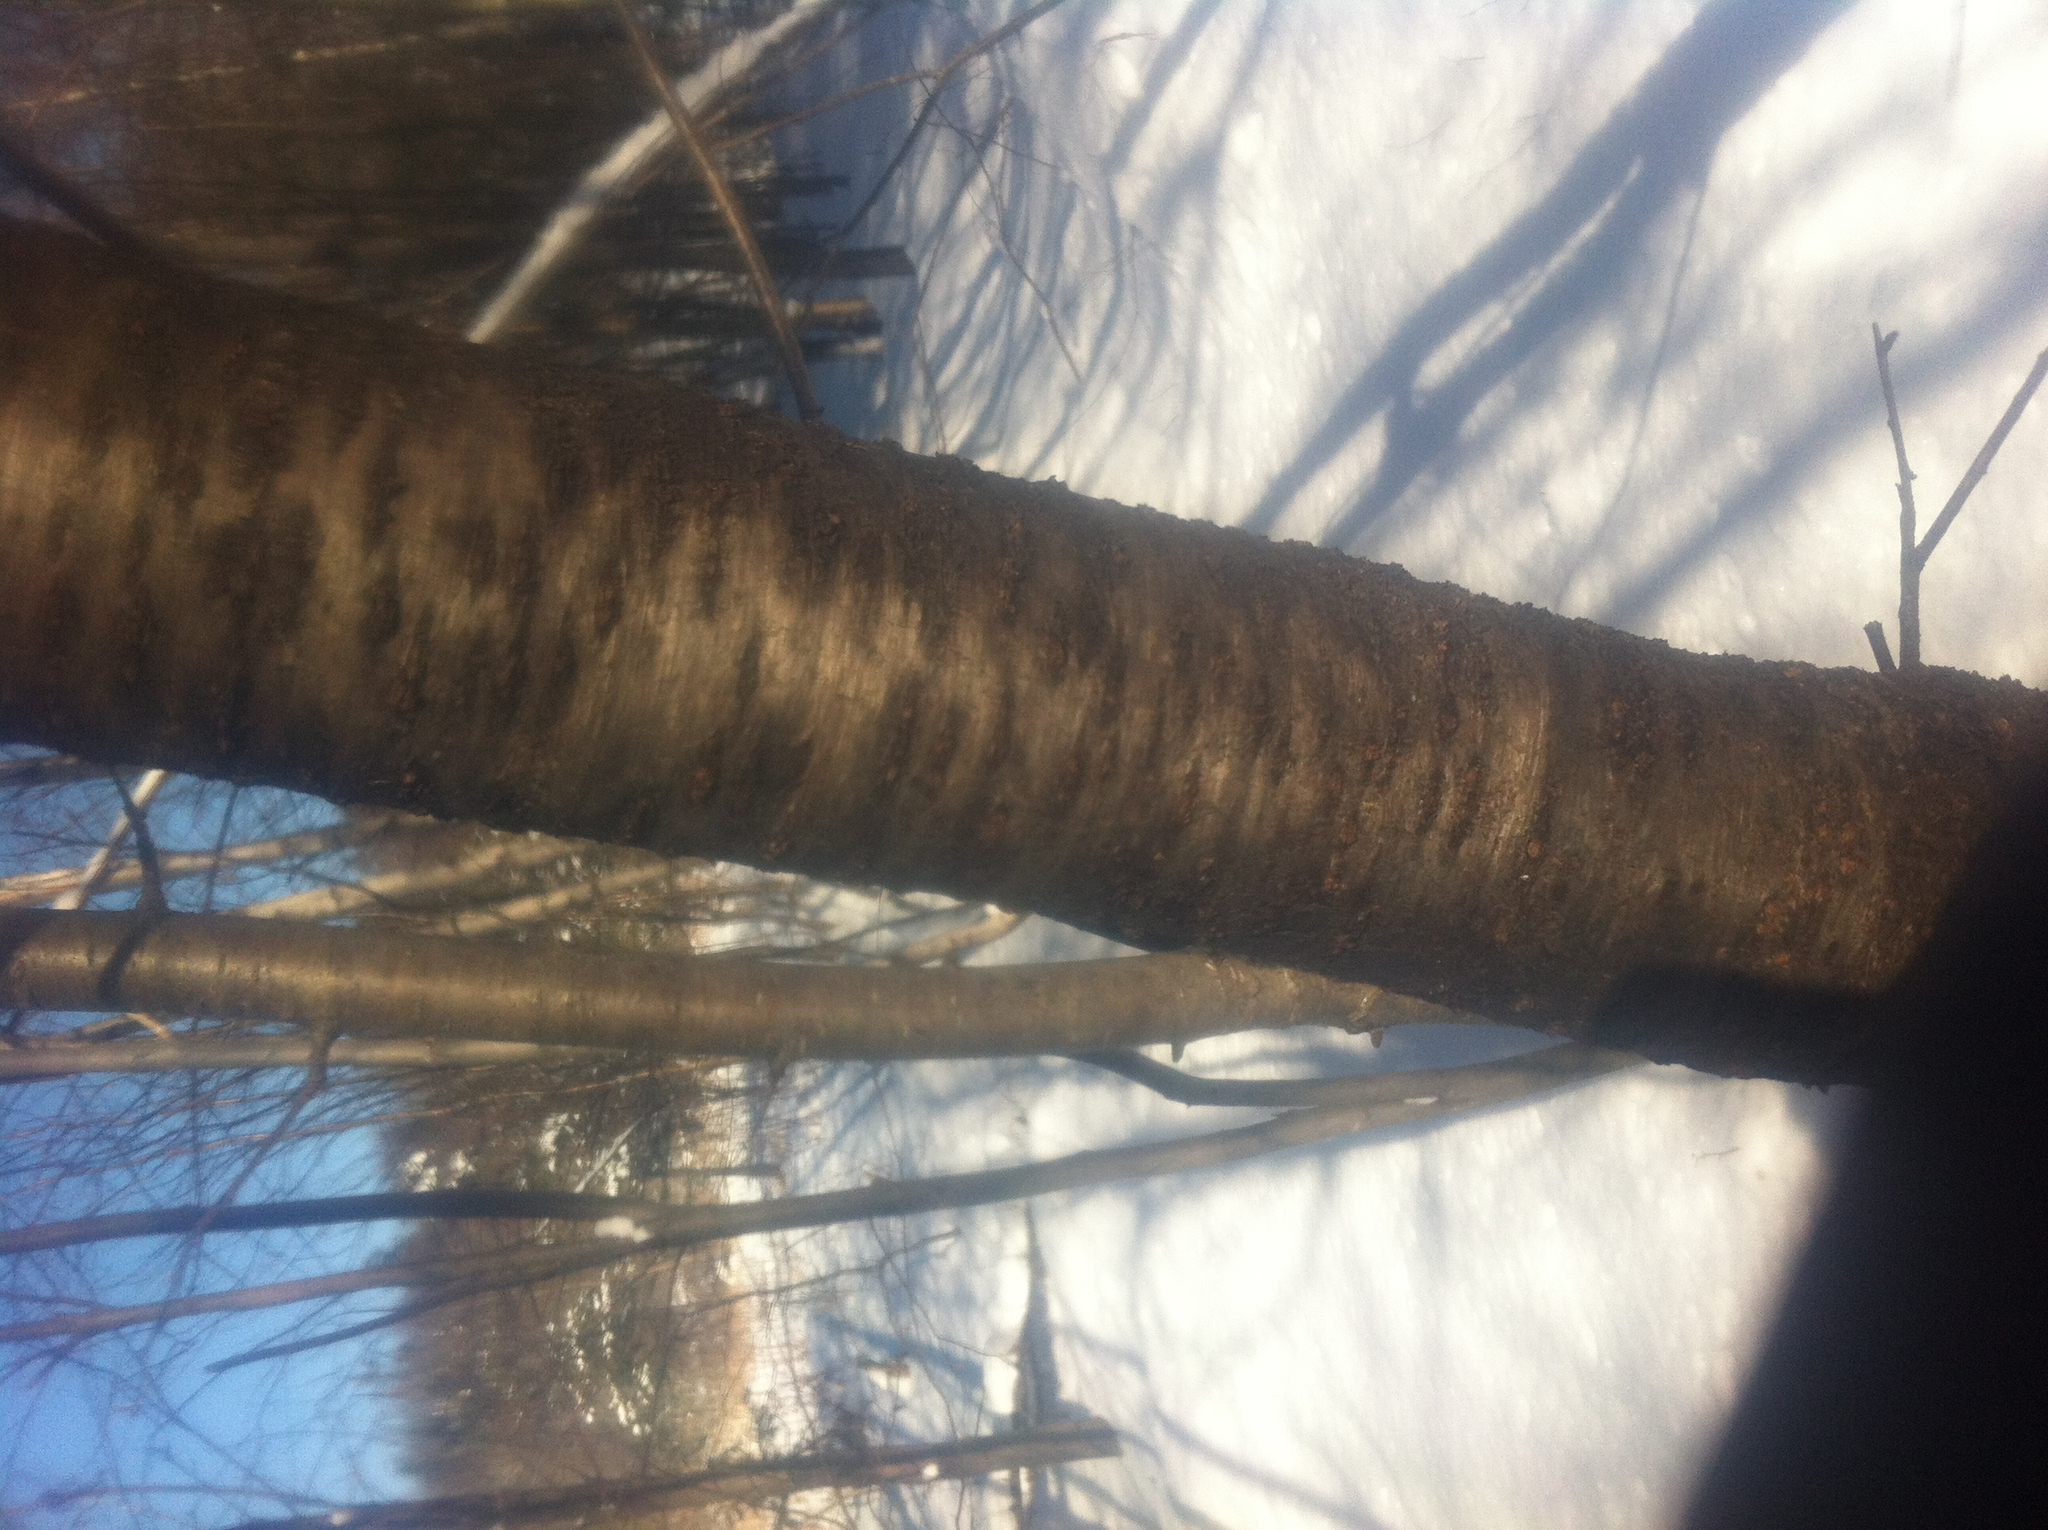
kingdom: Plantae
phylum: Tracheophyta
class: Magnoliopsida
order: Rosales
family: Rosaceae
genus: Prunus
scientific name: Prunus pensylvanica
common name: Pin cherry
